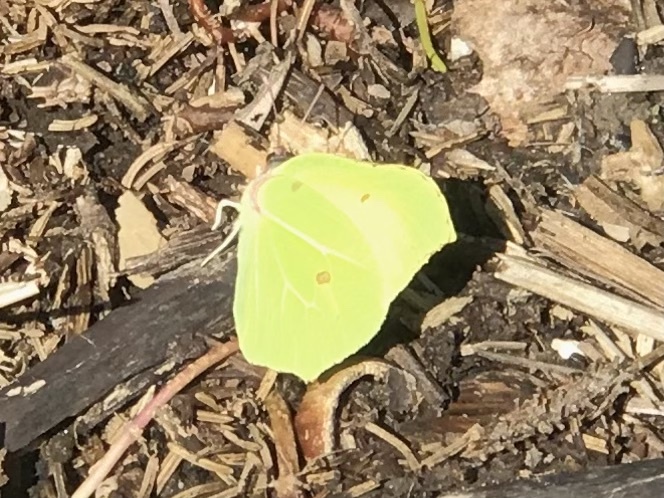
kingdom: Animalia
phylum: Arthropoda
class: Insecta
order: Lepidoptera
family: Pieridae
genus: Gonepteryx
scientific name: Gonepteryx rhamni
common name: Brimstone
